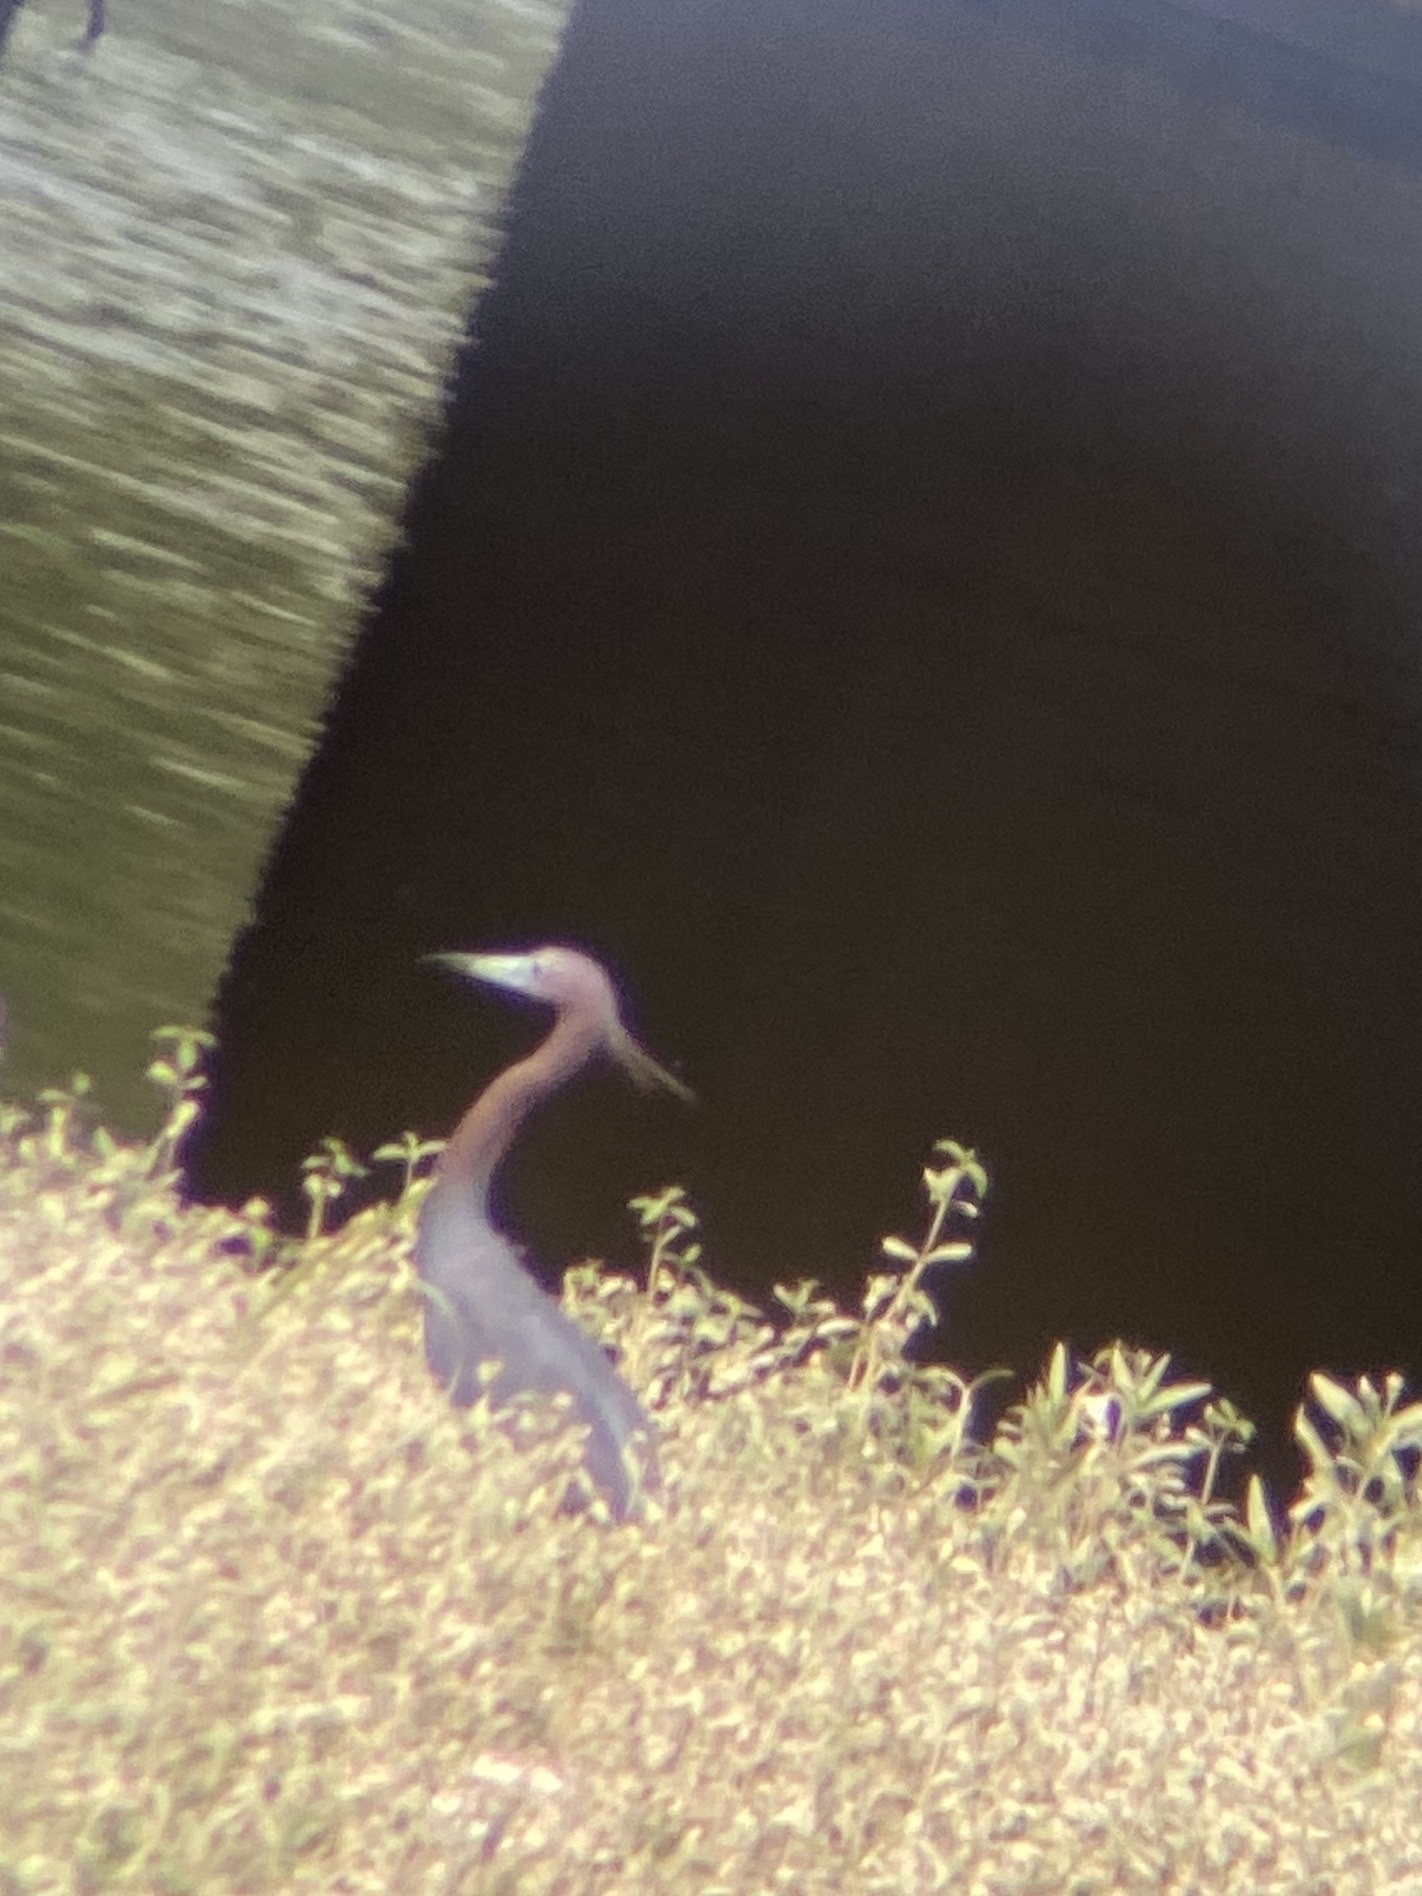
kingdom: Animalia
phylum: Chordata
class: Aves
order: Pelecaniformes
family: Ardeidae
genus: Egretta
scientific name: Egretta caerulea
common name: Little blue heron
